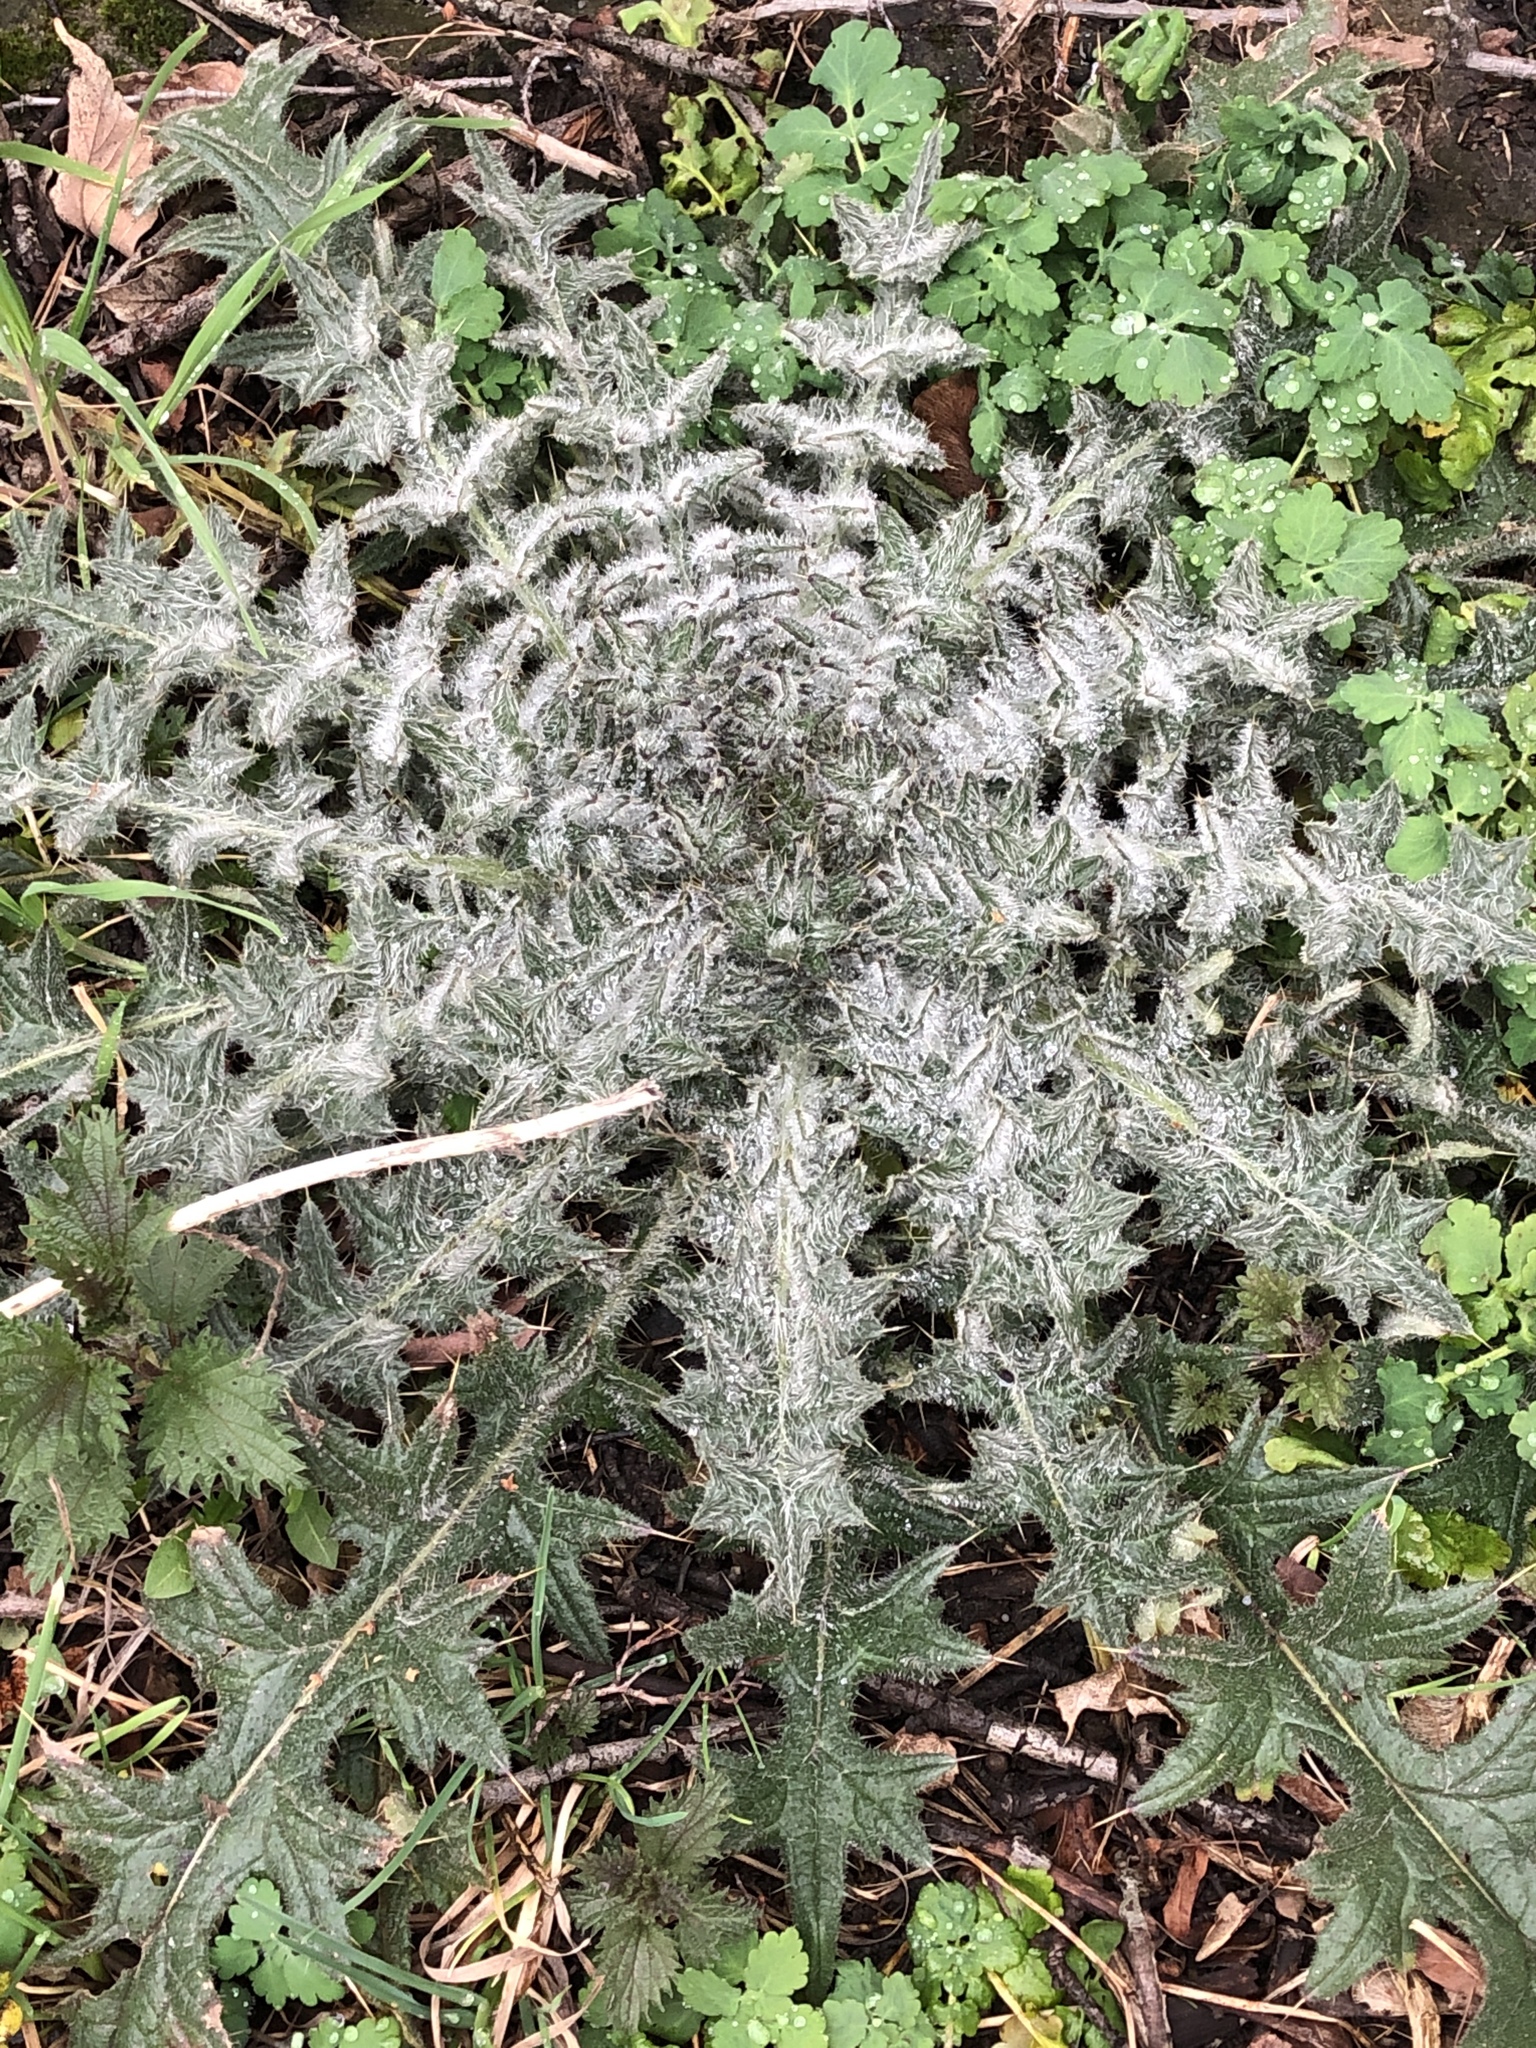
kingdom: Plantae
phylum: Tracheophyta
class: Magnoliopsida
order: Asterales
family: Asteraceae
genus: Cirsium
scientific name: Cirsium vulgare
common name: Bull thistle
